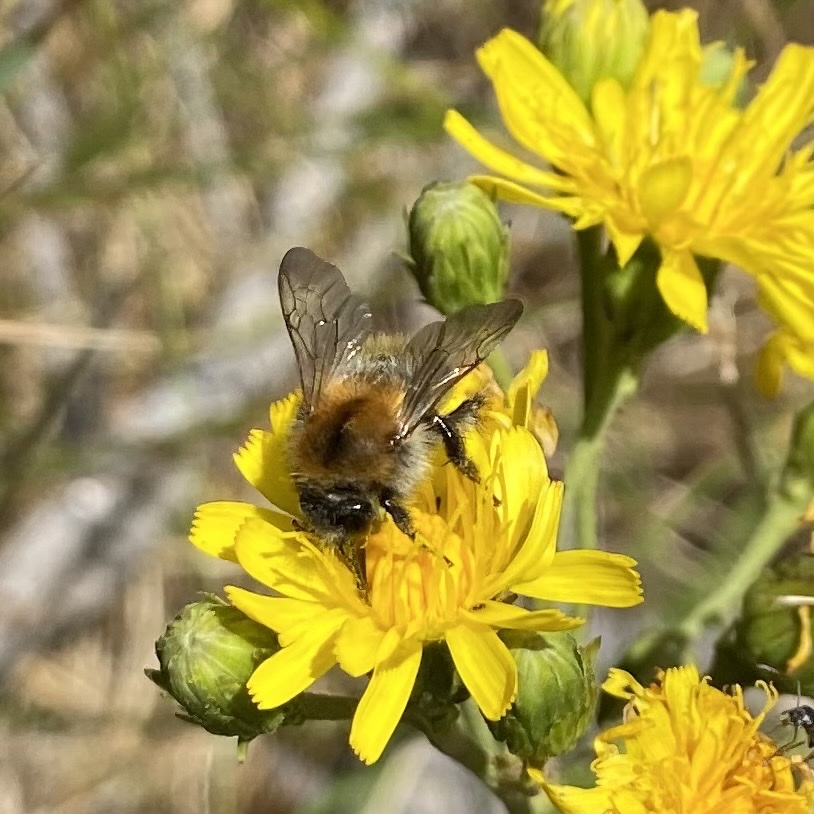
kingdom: Animalia
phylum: Arthropoda
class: Insecta
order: Hymenoptera
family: Apidae
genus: Bombus
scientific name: Bombus pascuorum
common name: Common carder bee
